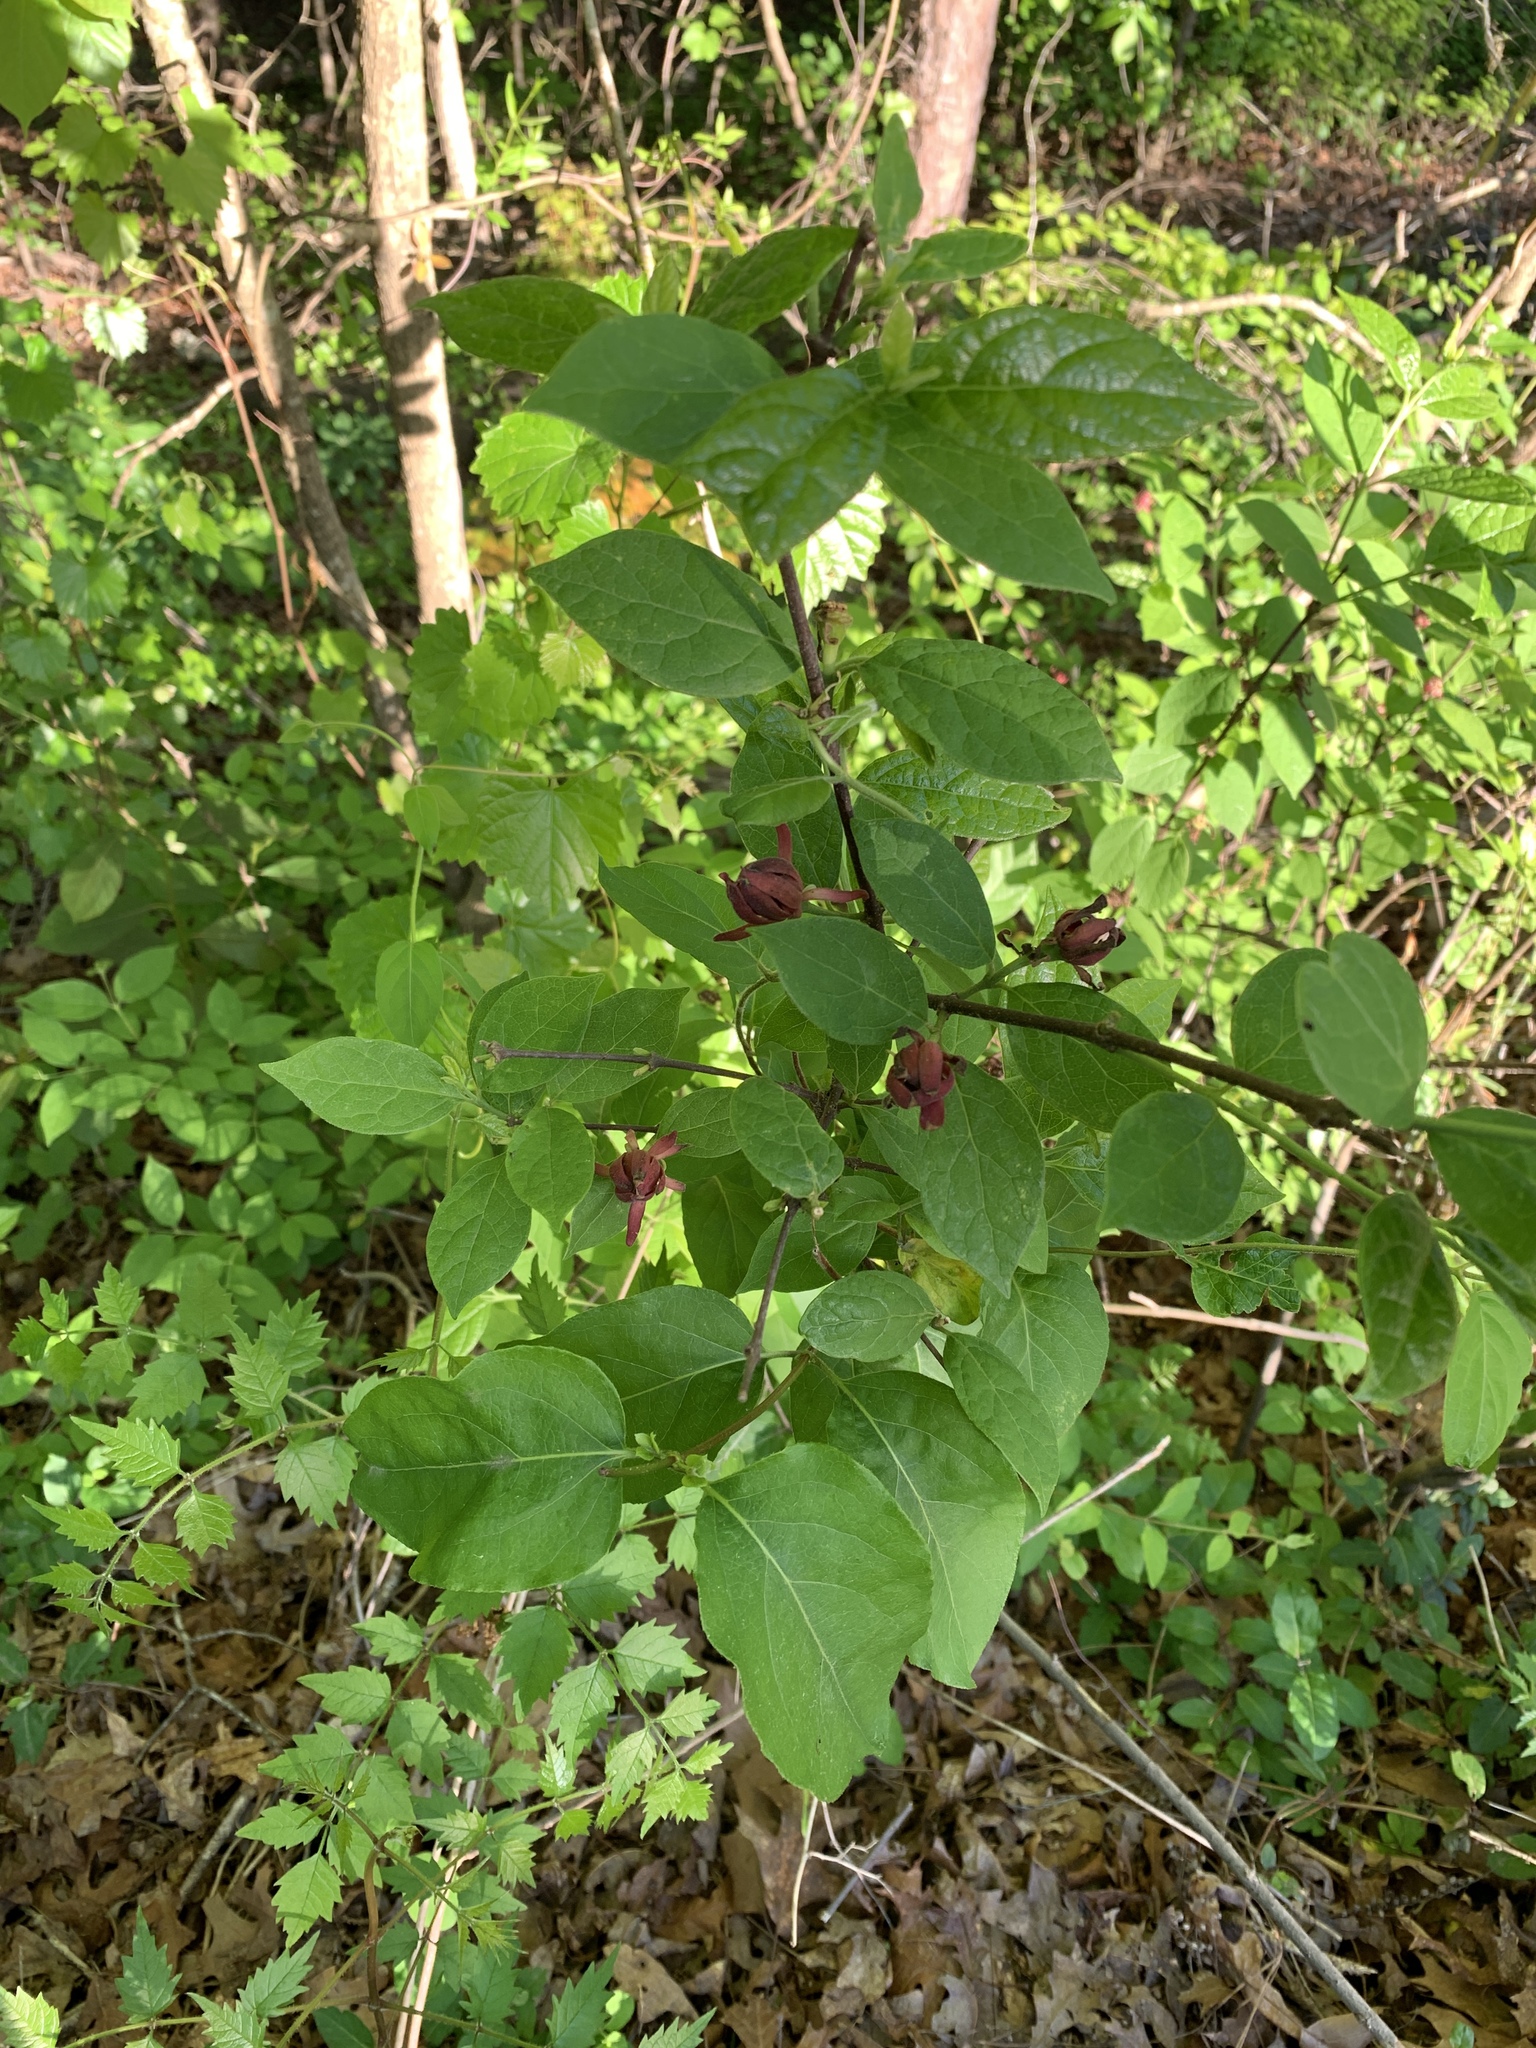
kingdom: Plantae
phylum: Tracheophyta
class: Magnoliopsida
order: Laurales
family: Calycanthaceae
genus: Calycanthus
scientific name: Calycanthus floridus
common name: Carolina-allspice
